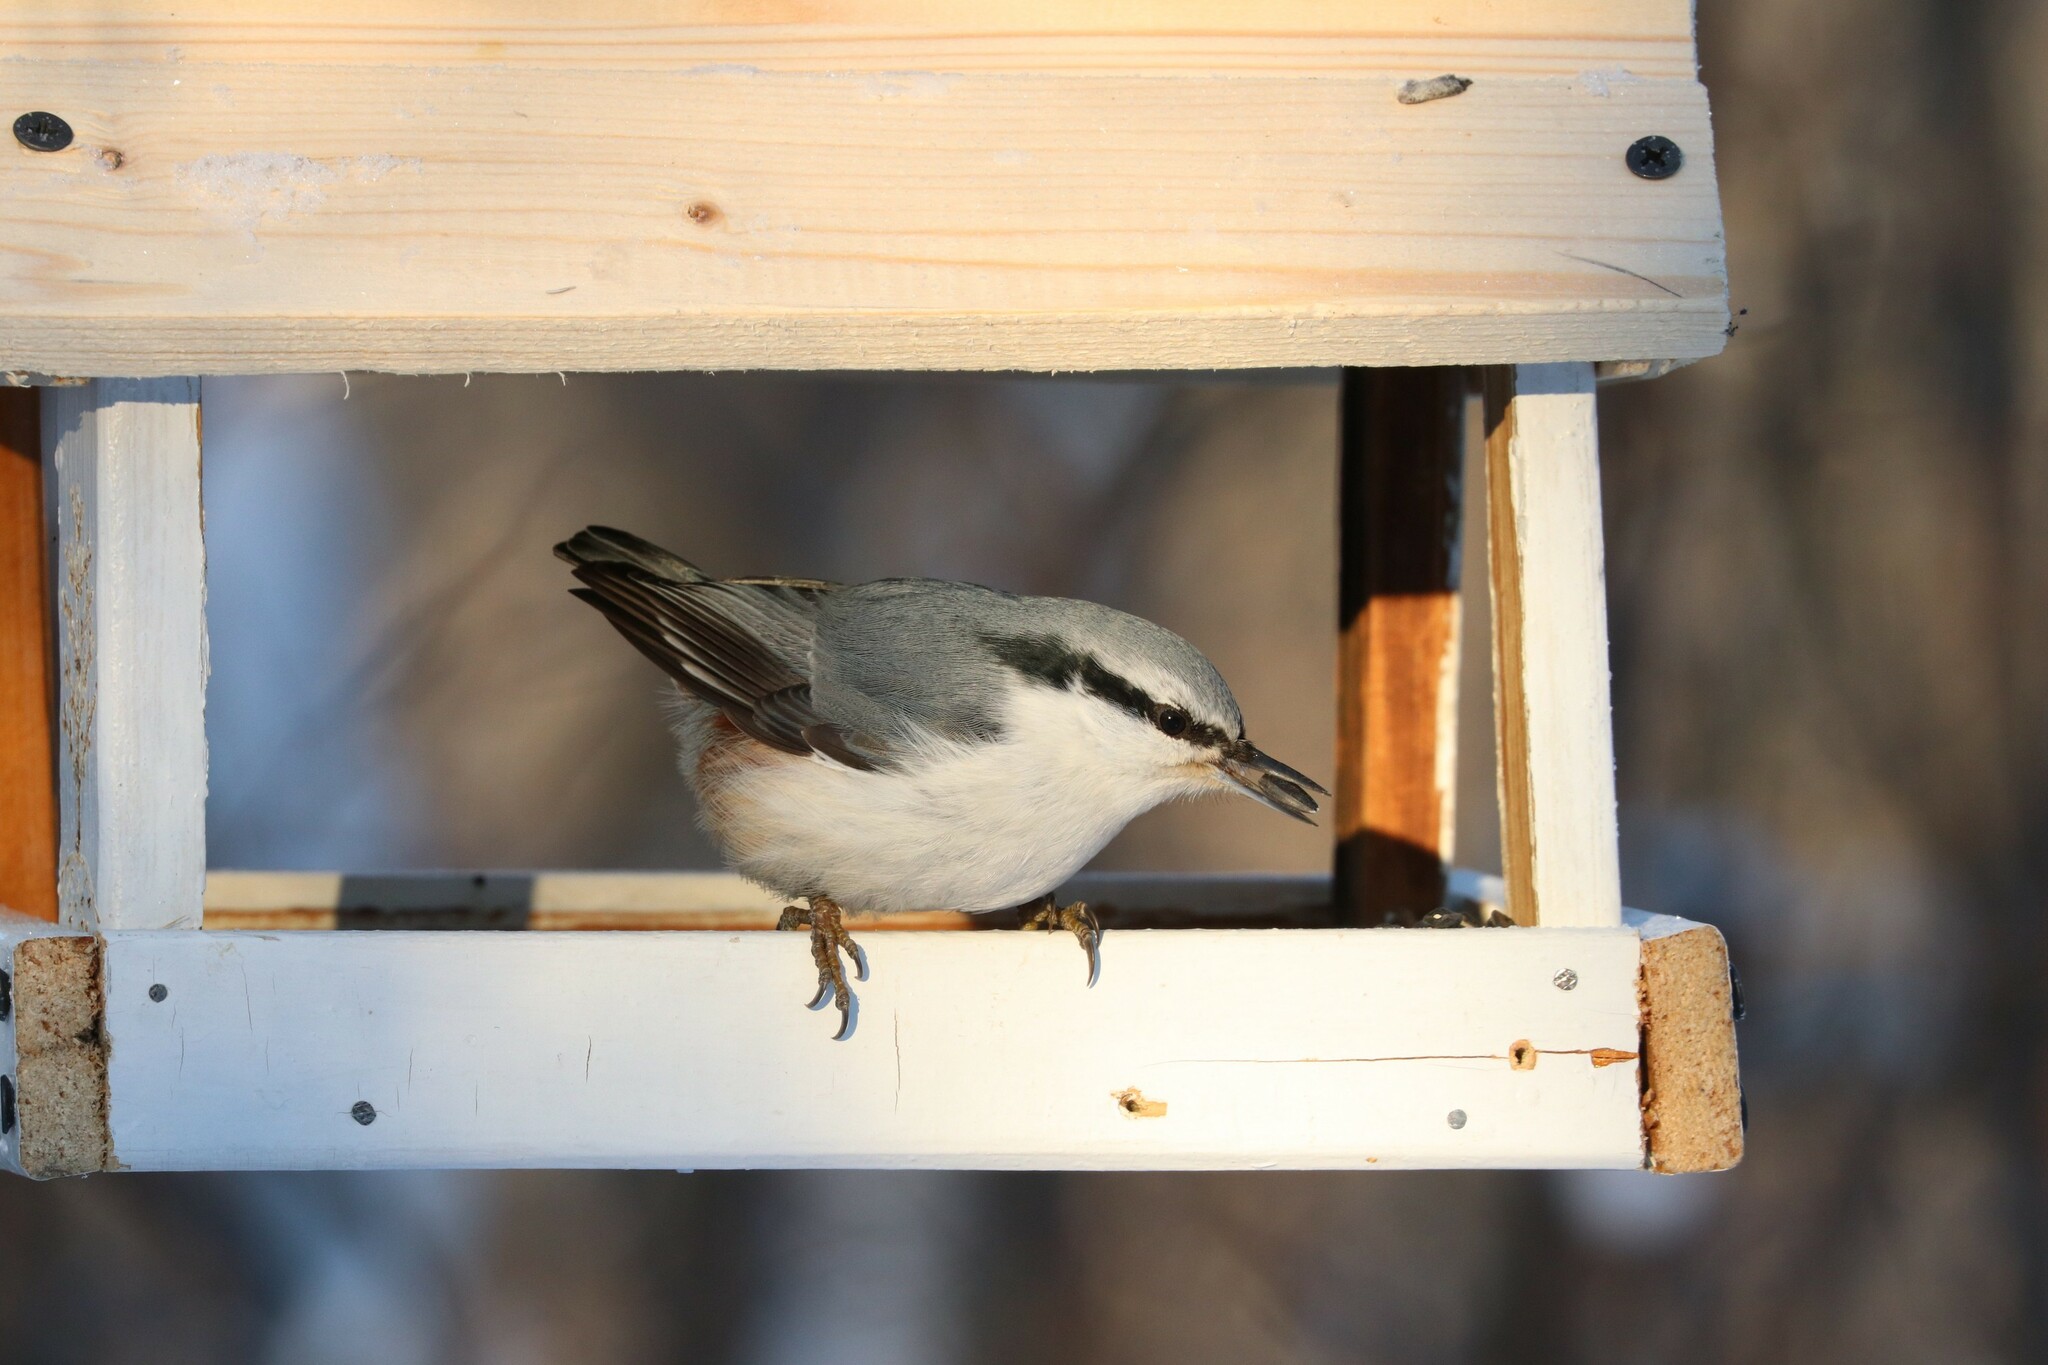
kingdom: Animalia
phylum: Chordata
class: Aves
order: Passeriformes
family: Sittidae
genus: Sitta
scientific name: Sitta europaea
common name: Eurasian nuthatch
